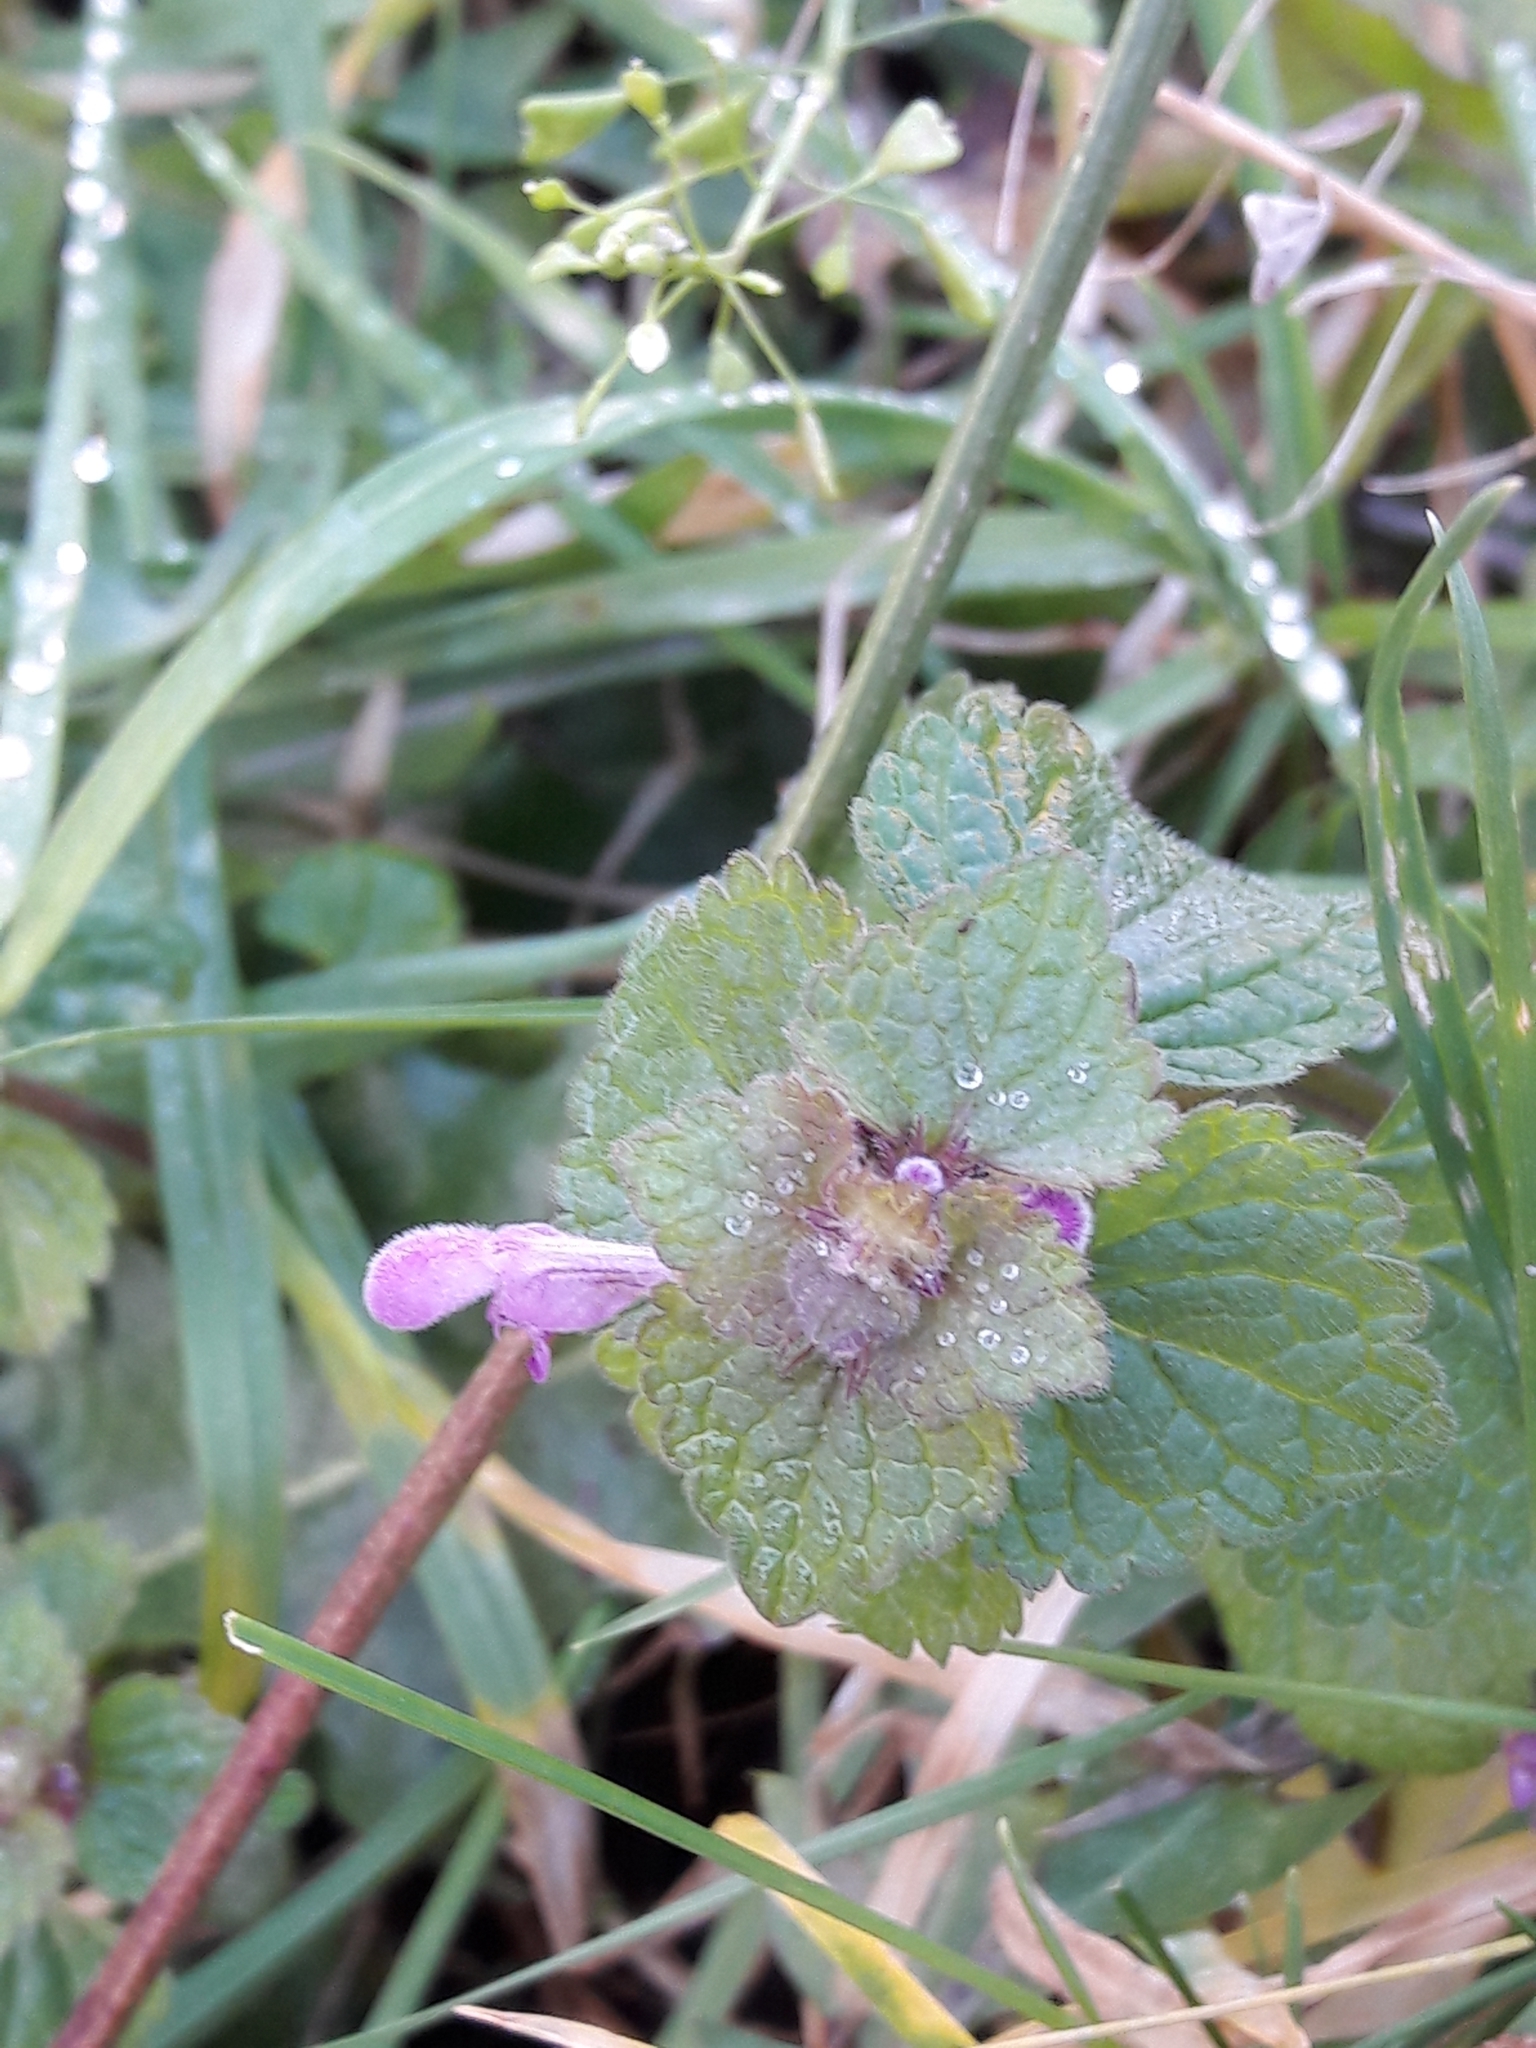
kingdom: Plantae
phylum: Tracheophyta
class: Magnoliopsida
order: Lamiales
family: Lamiaceae
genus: Lamium
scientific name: Lamium purpureum
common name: Red dead-nettle
